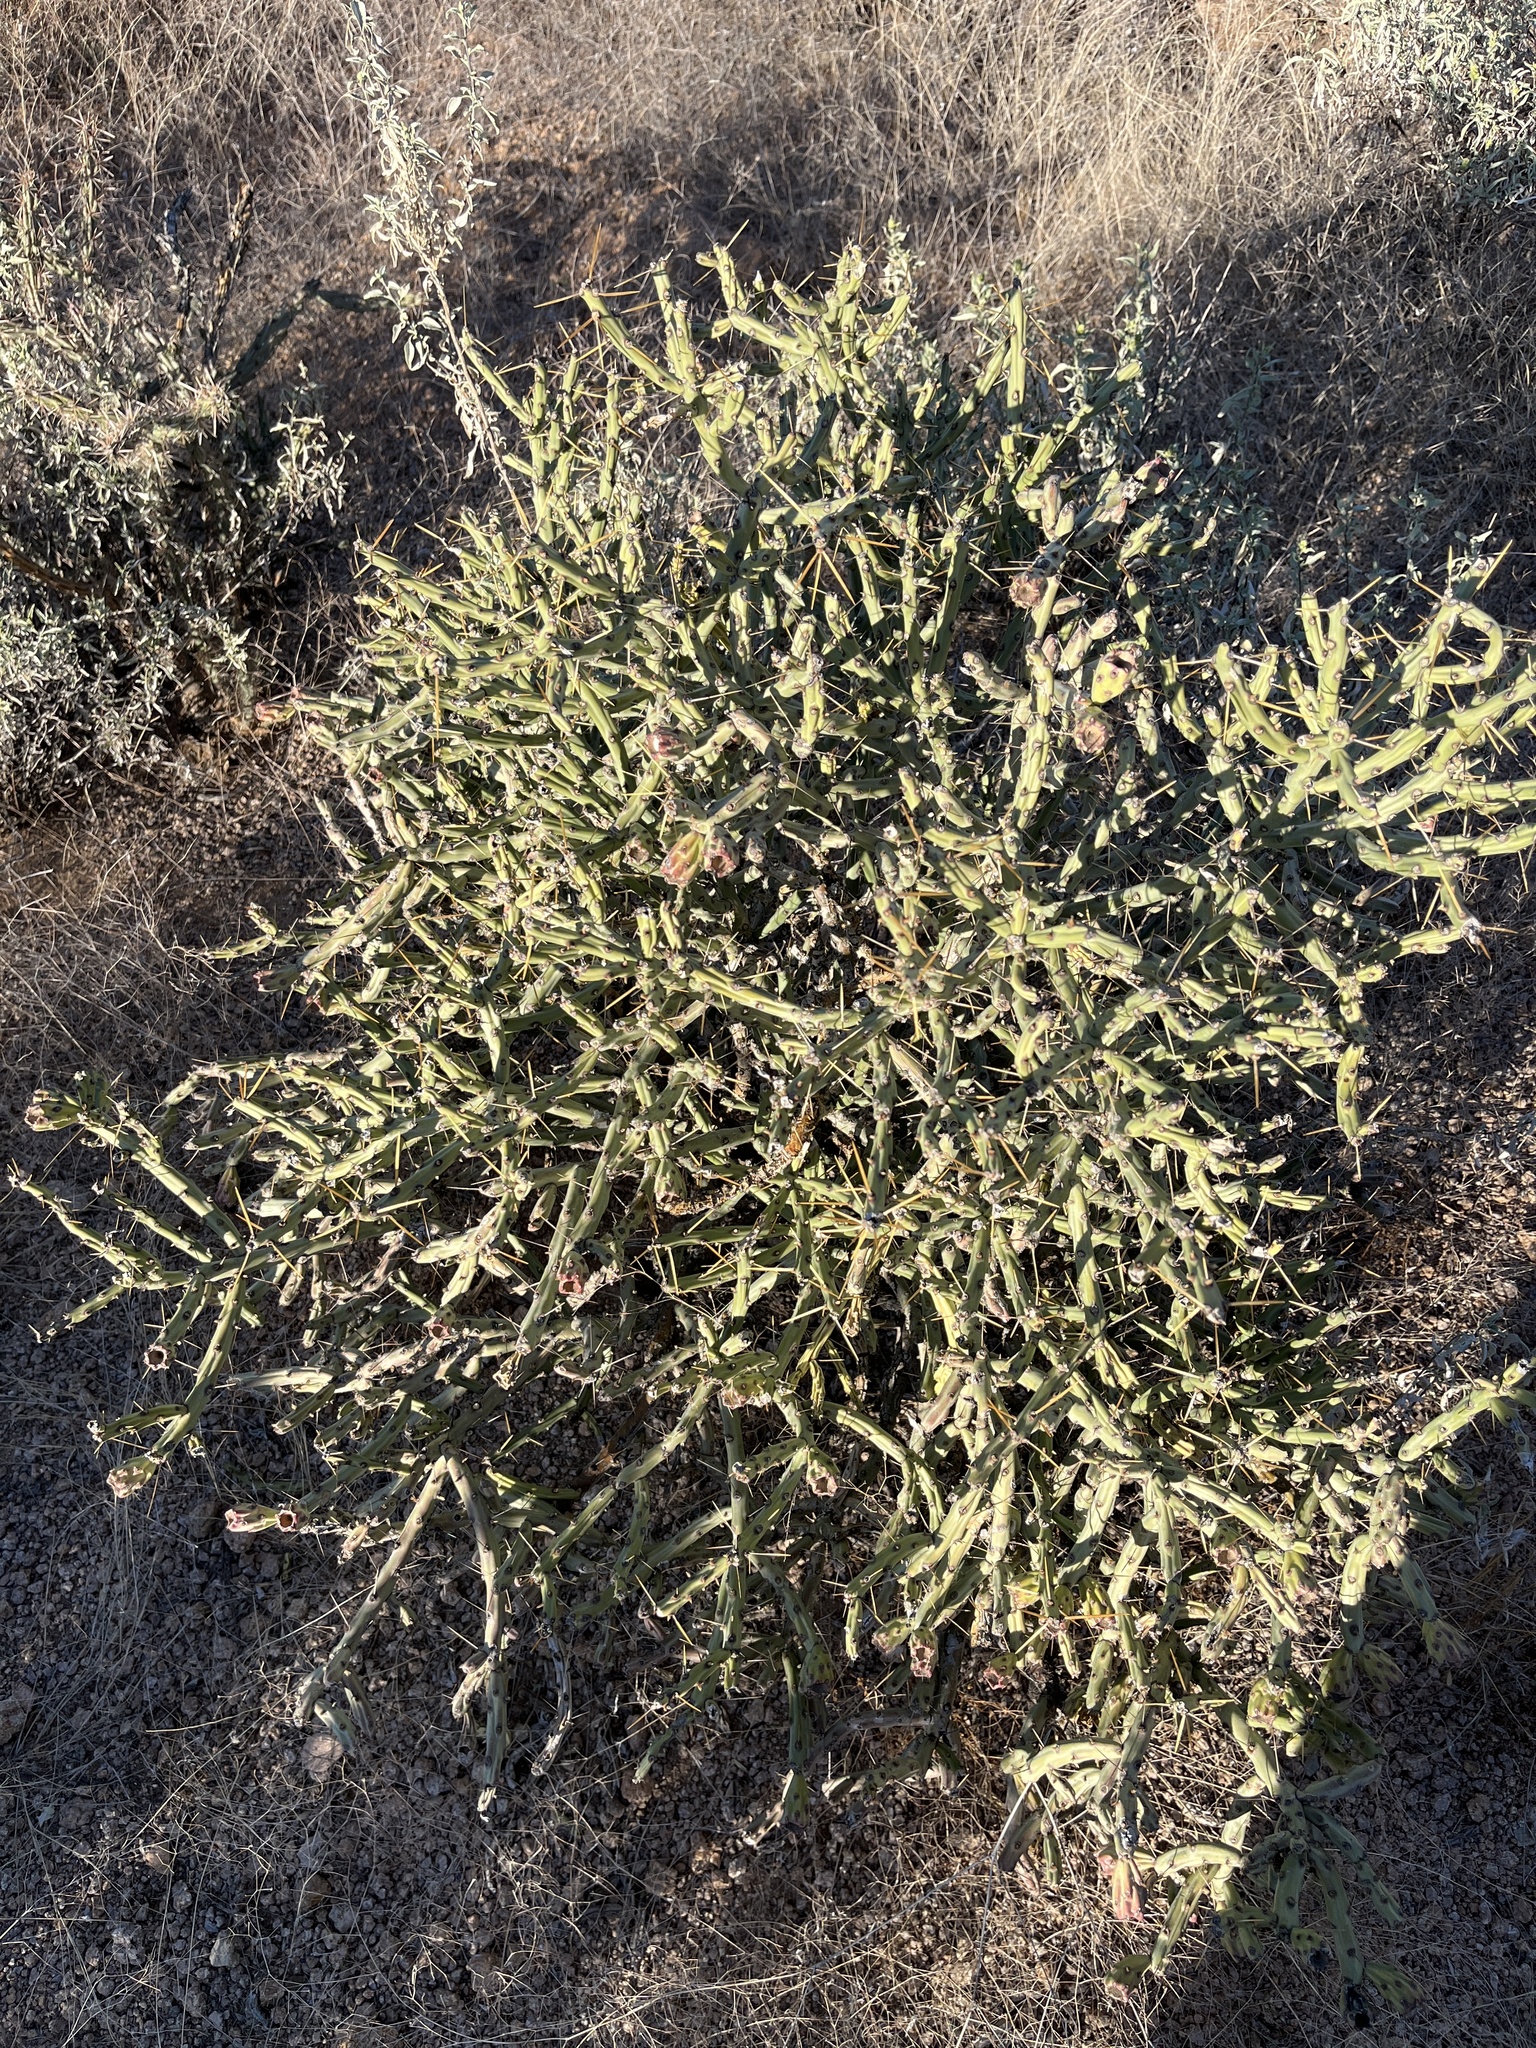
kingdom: Plantae
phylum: Tracheophyta
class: Magnoliopsida
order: Caryophyllales
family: Cactaceae
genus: Cylindropuntia
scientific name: Cylindropuntia arbuscula
